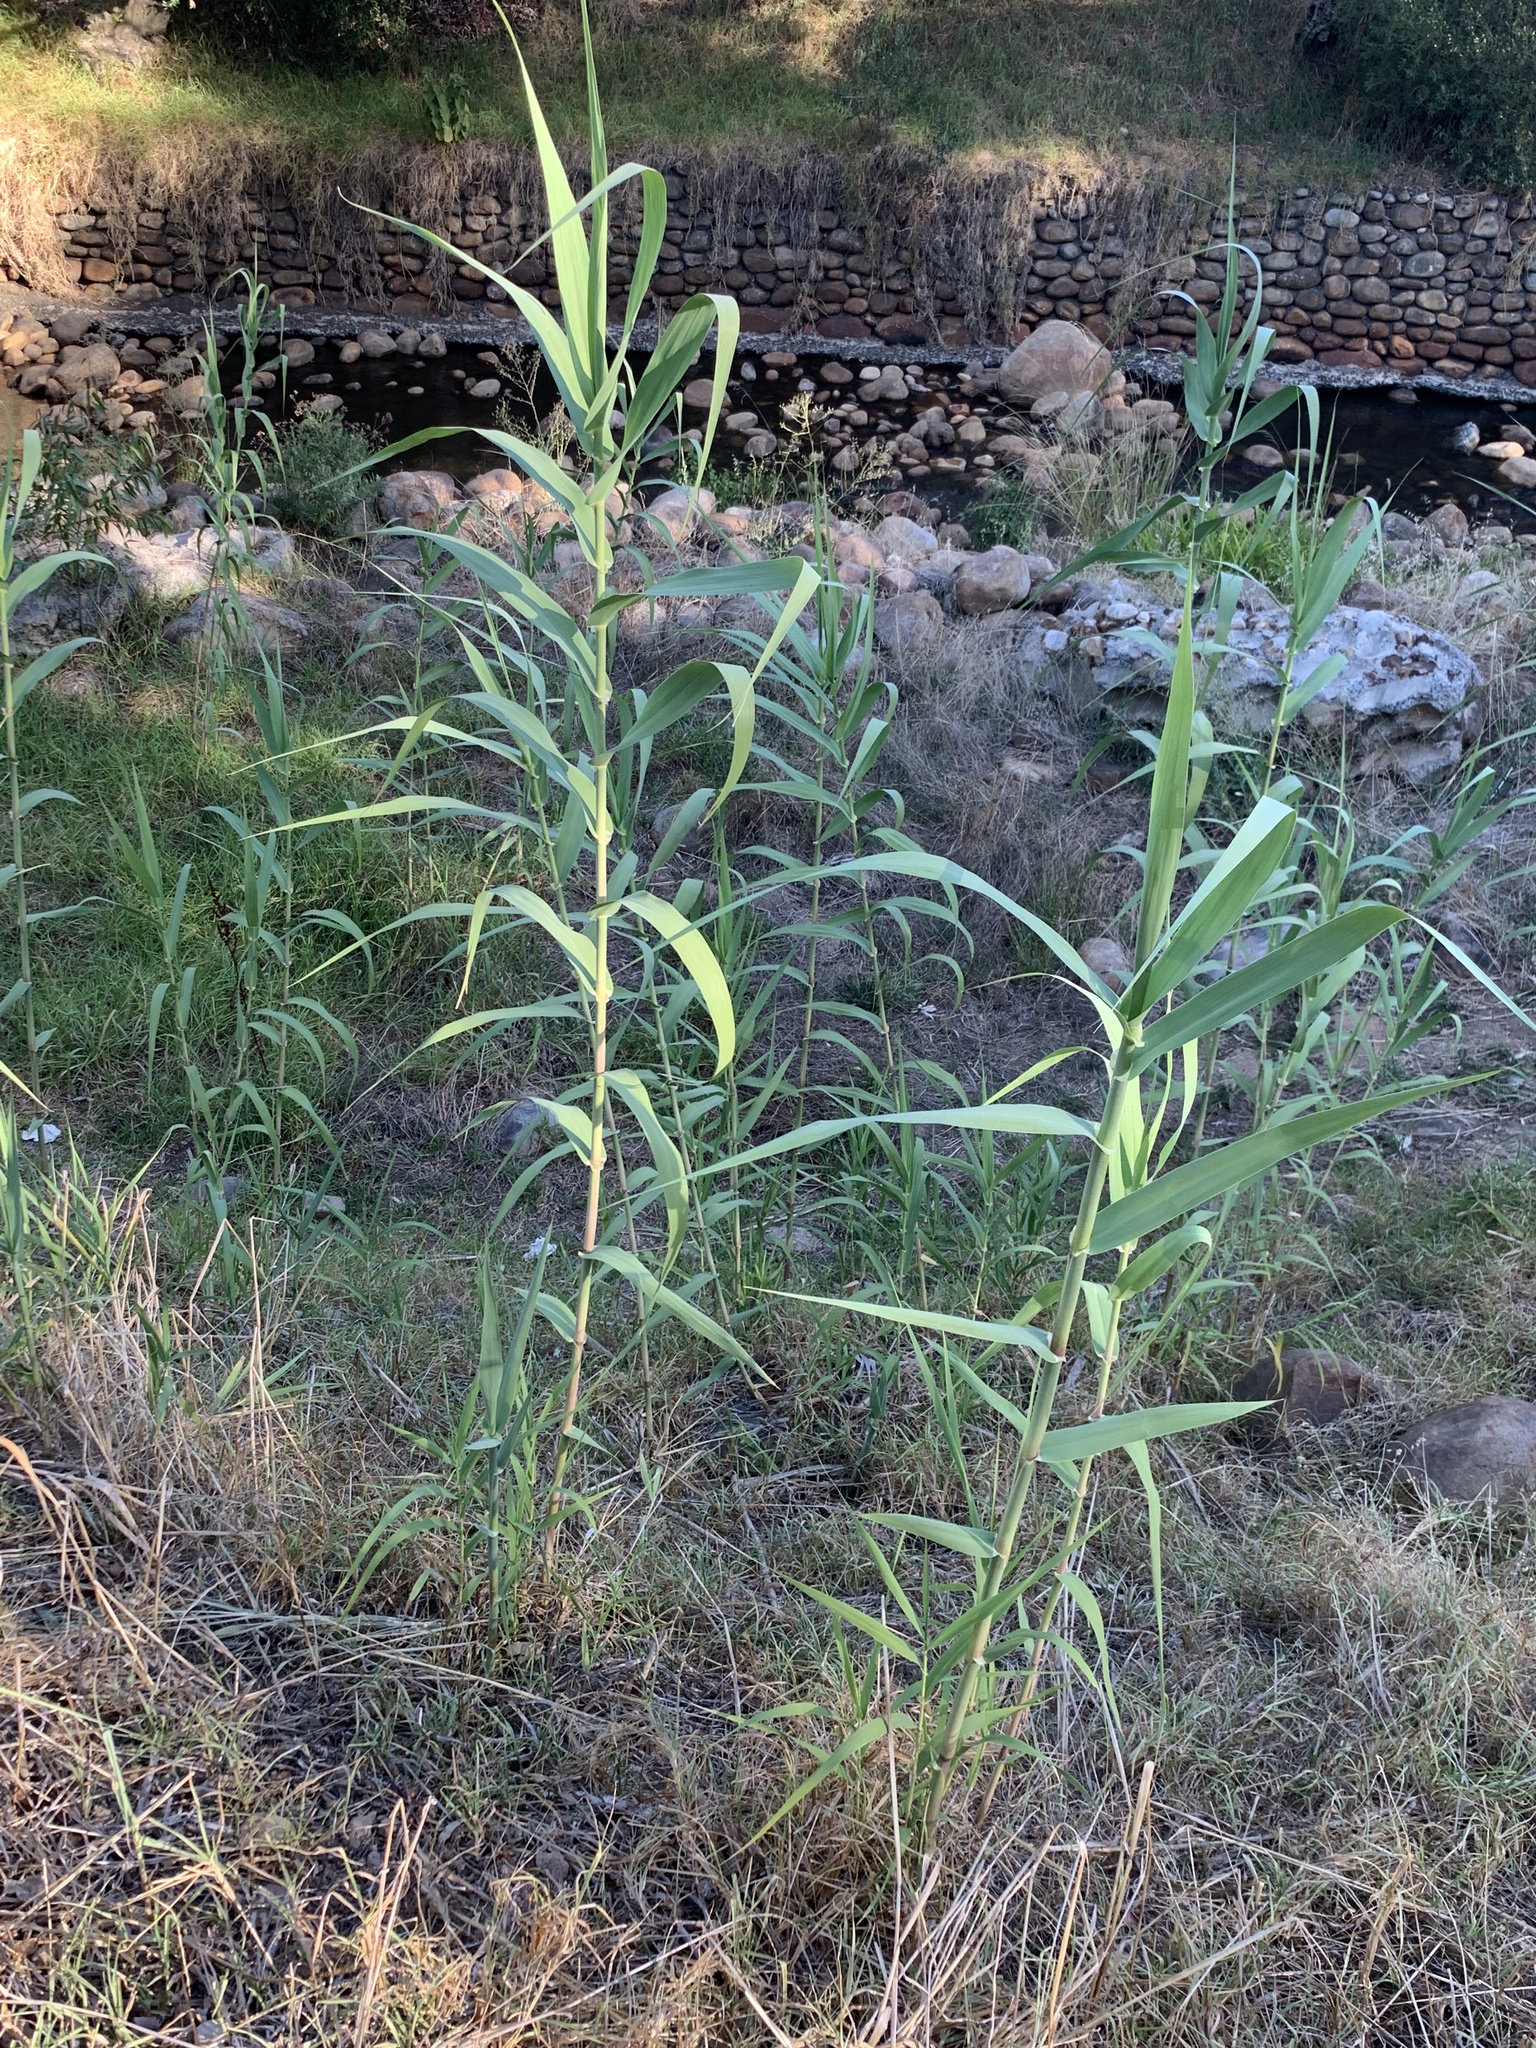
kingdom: Plantae
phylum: Tracheophyta
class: Liliopsida
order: Poales
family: Poaceae
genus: Arundo
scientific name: Arundo donax
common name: Giant reed
